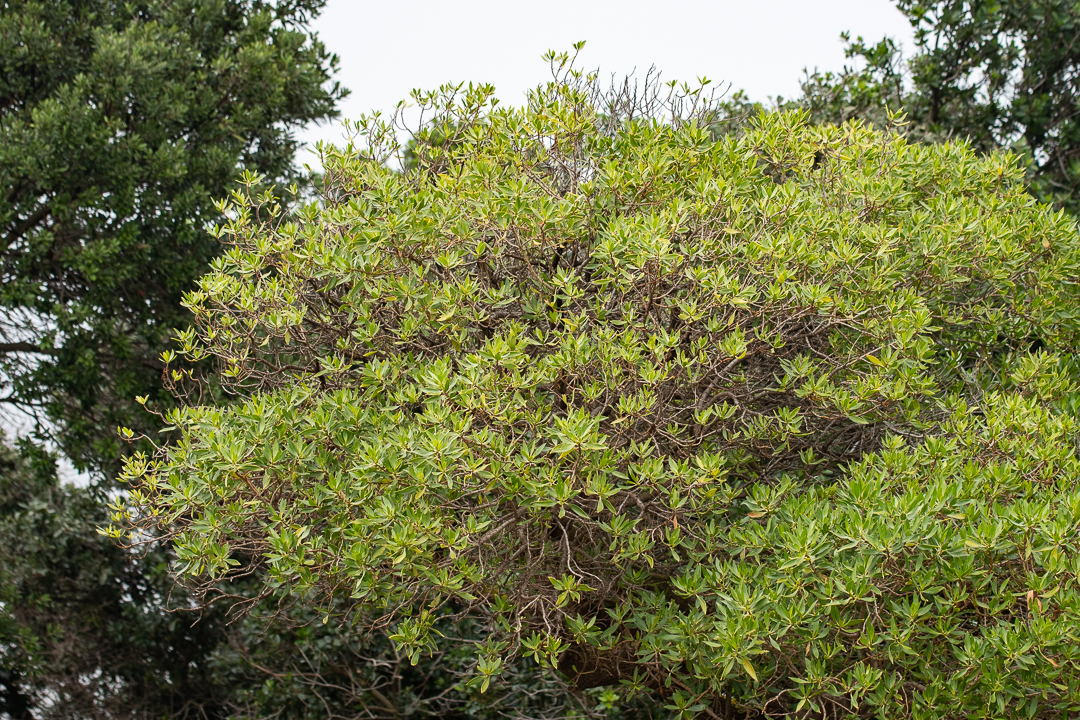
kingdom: Plantae
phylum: Tracheophyta
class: Magnoliopsida
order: Lamiales
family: Scrophulariaceae
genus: Myoporum
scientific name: Myoporum montanum
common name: Waterbush
